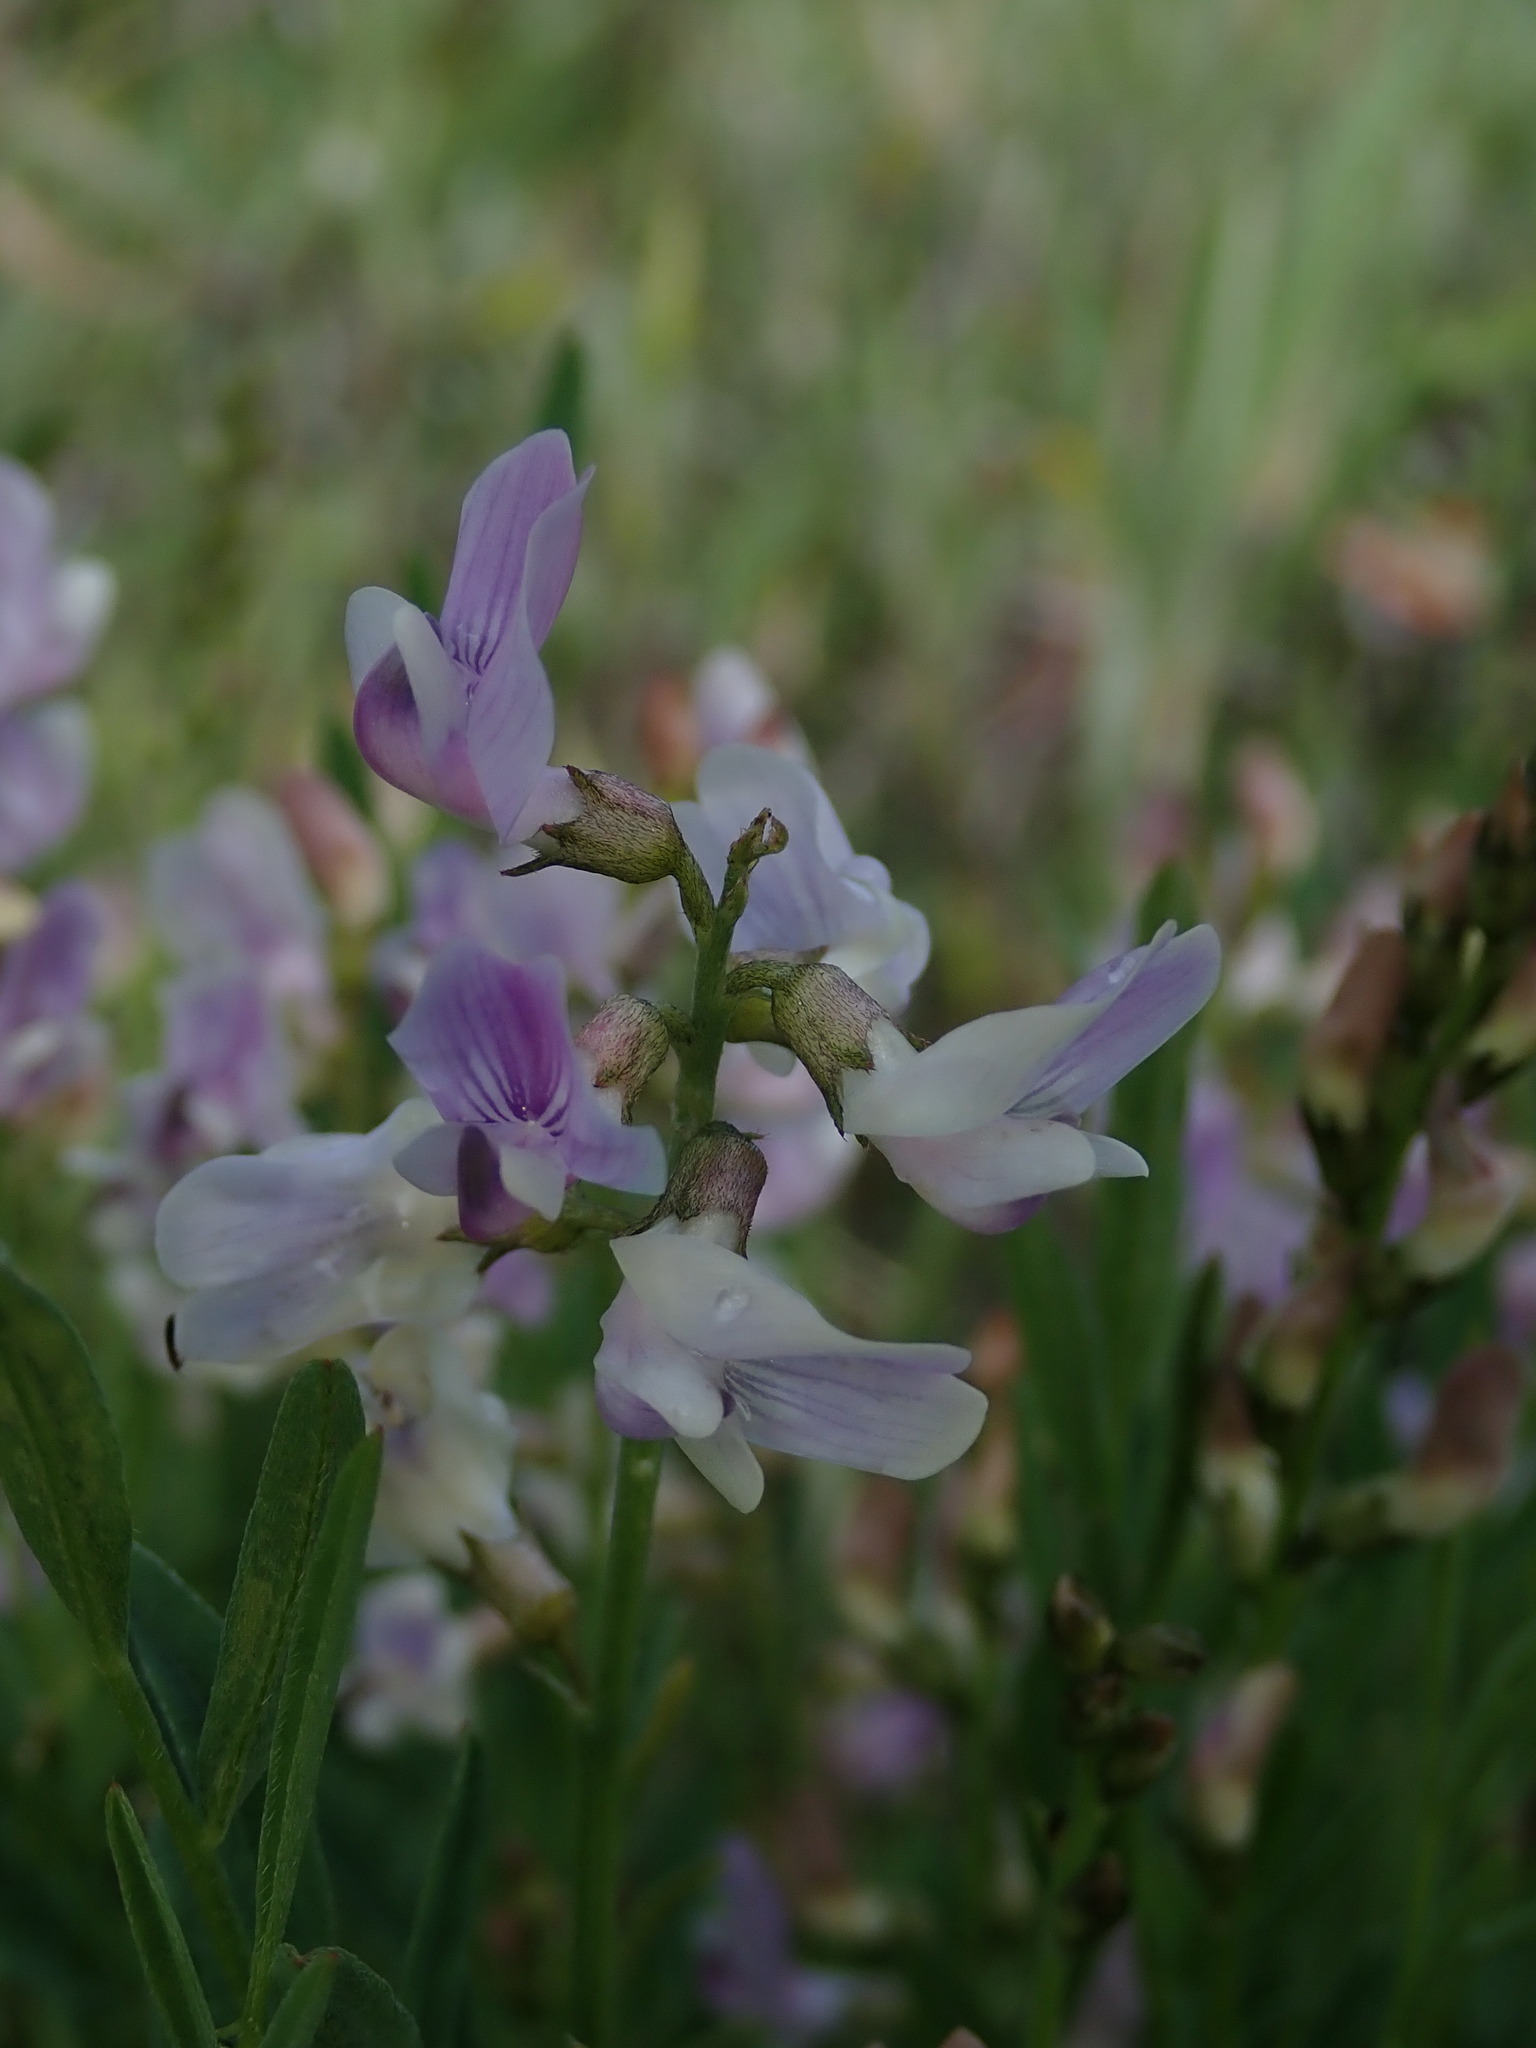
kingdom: Plantae
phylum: Tracheophyta
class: Magnoliopsida
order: Fabales
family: Fabaceae
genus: Astragalus
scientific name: Astragalus miser
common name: Timber milkvetch
